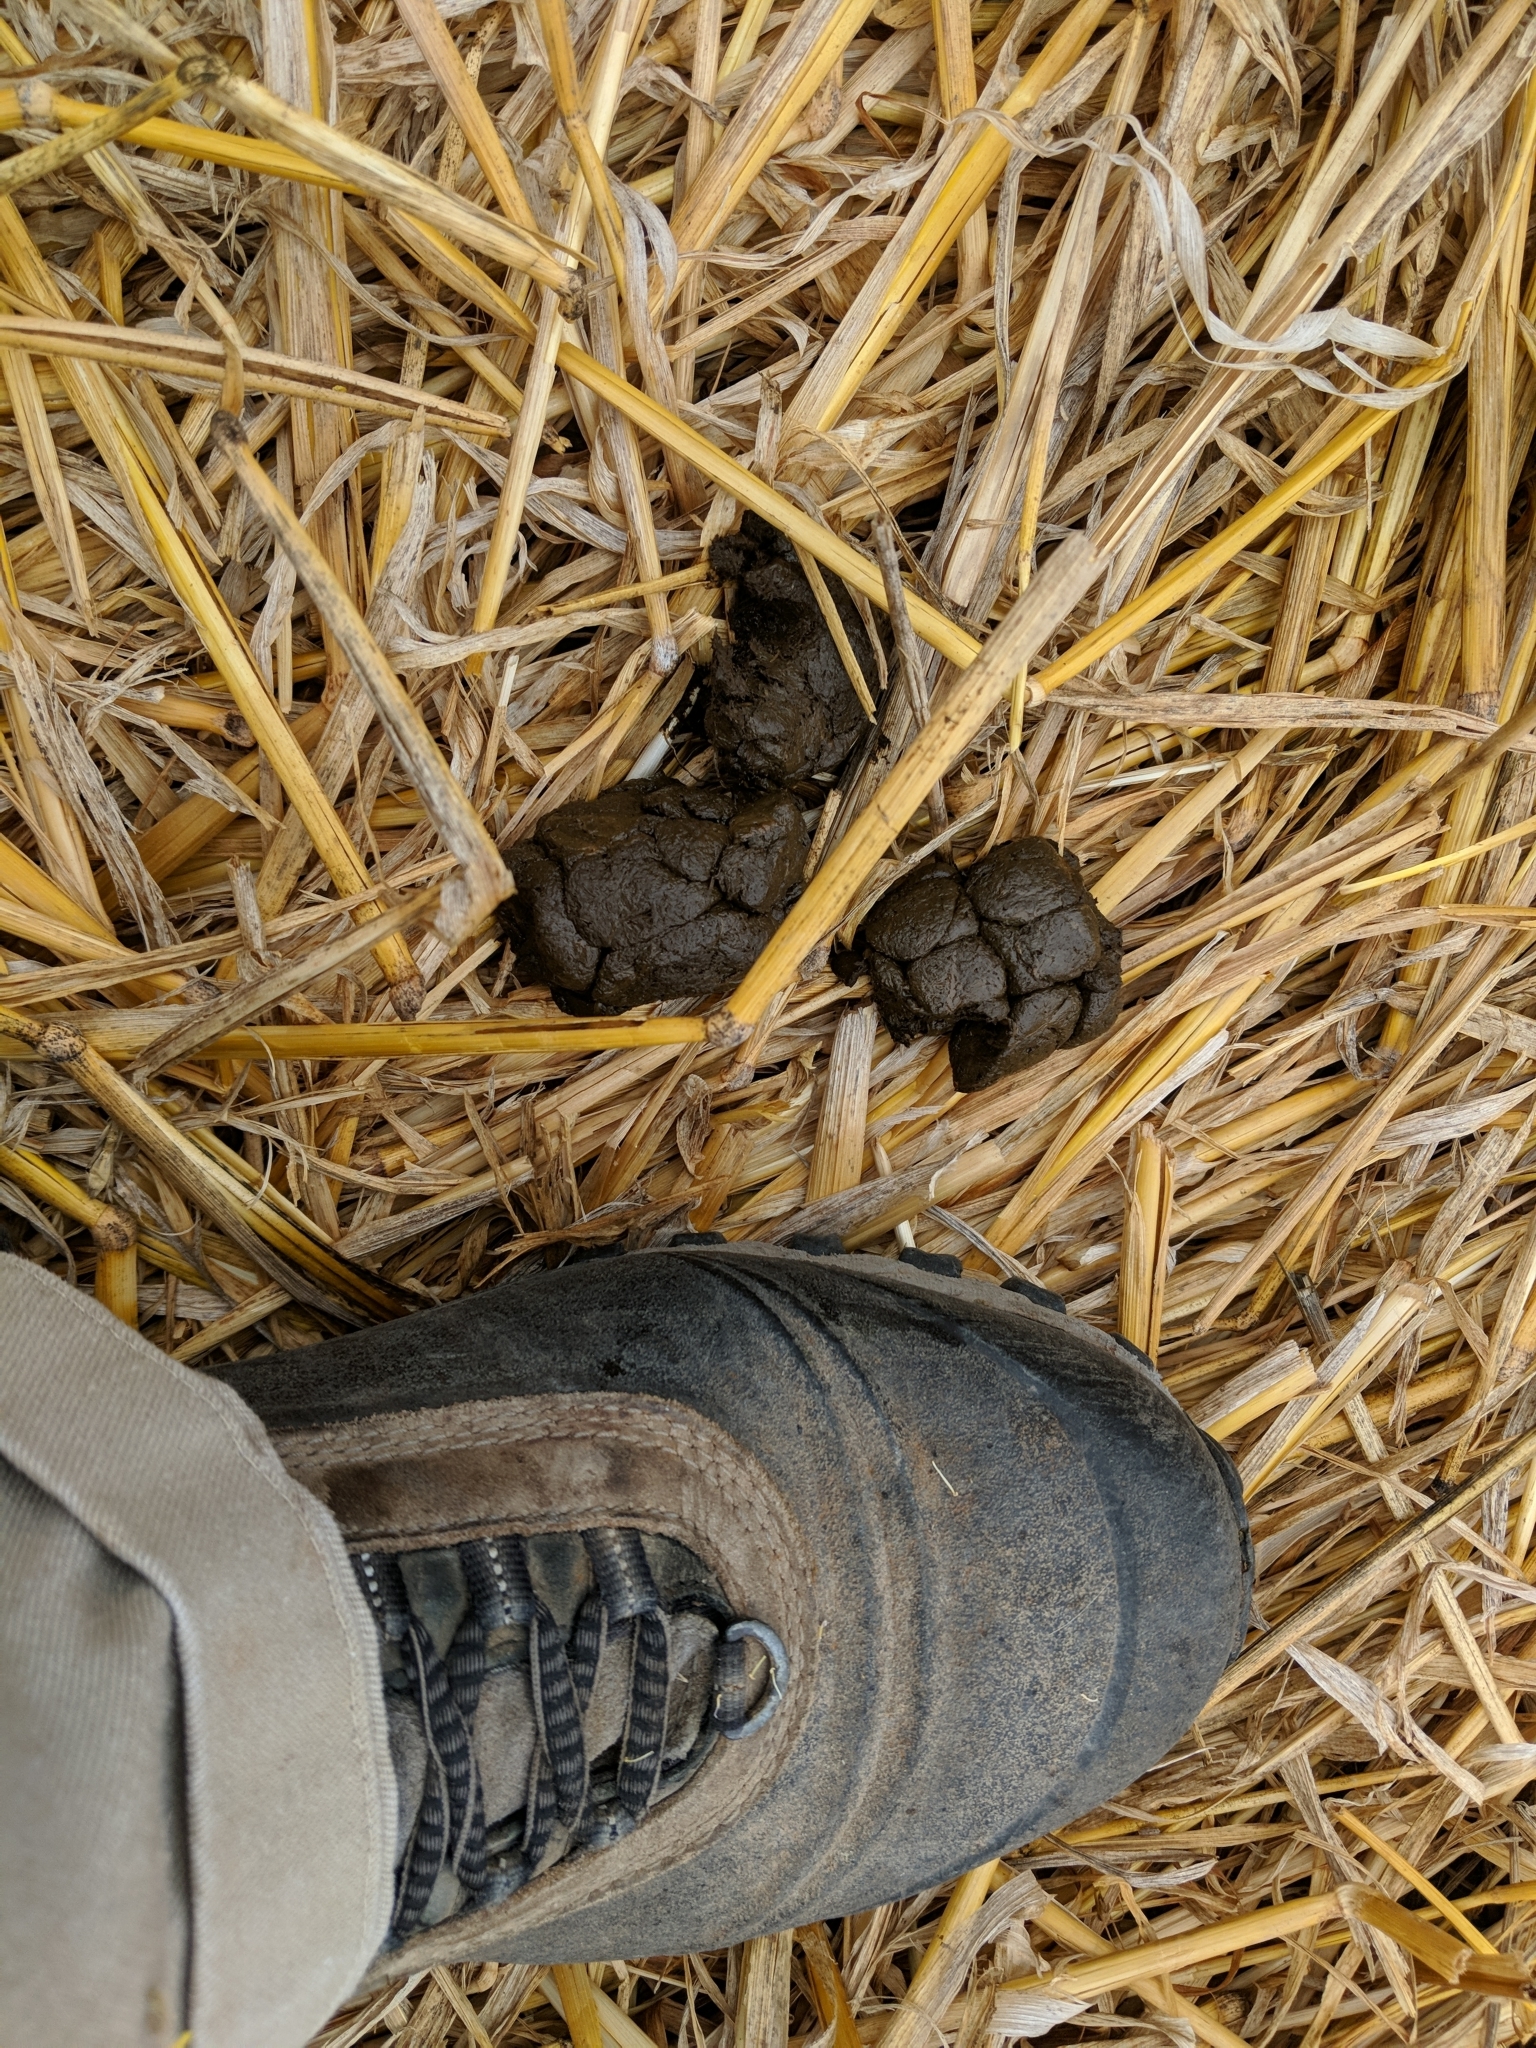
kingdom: Animalia
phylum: Chordata
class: Mammalia
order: Artiodactyla
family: Suidae
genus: Sus
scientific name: Sus scrofa
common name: Wild boar
